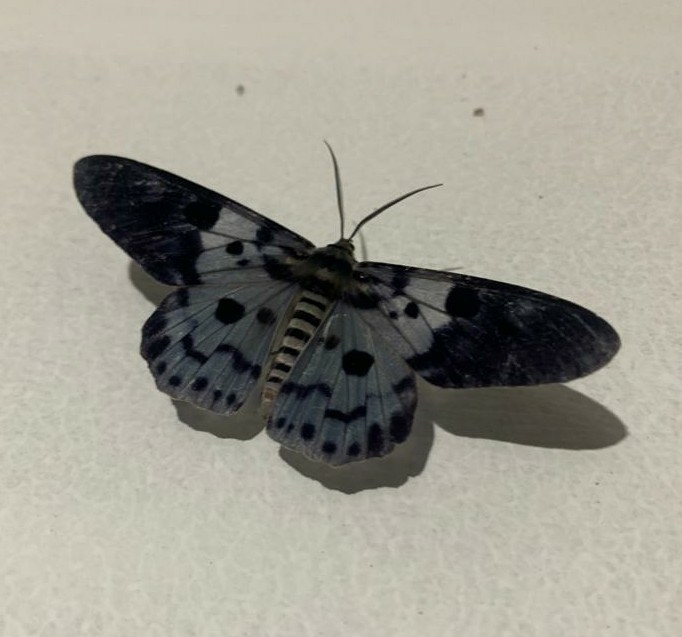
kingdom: Animalia
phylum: Arthropoda
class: Insecta
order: Lepidoptera
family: Geometridae
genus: Dysphania
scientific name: Dysphania percota
